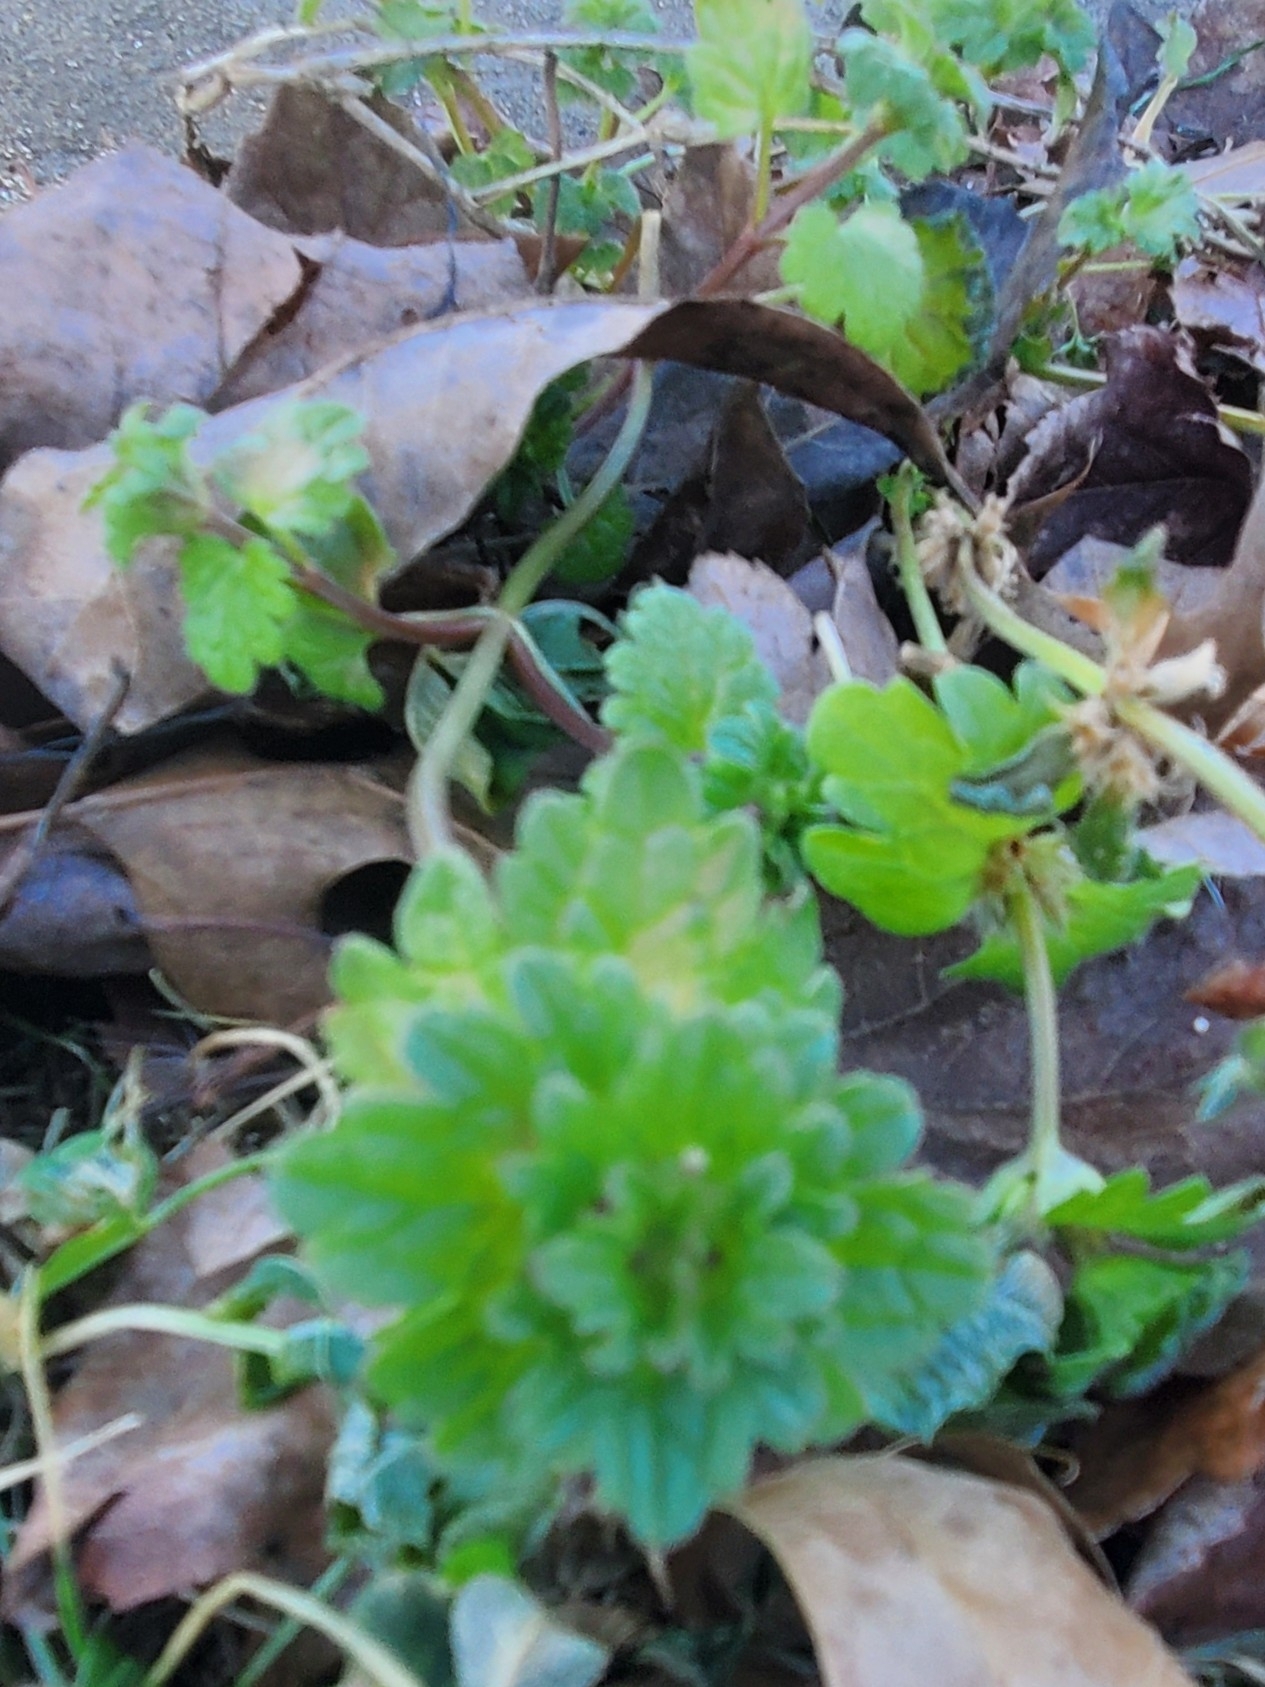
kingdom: Plantae
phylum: Tracheophyta
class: Magnoliopsida
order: Lamiales
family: Lamiaceae
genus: Lamium
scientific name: Lamium amplexicaule
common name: Henbit dead-nettle
